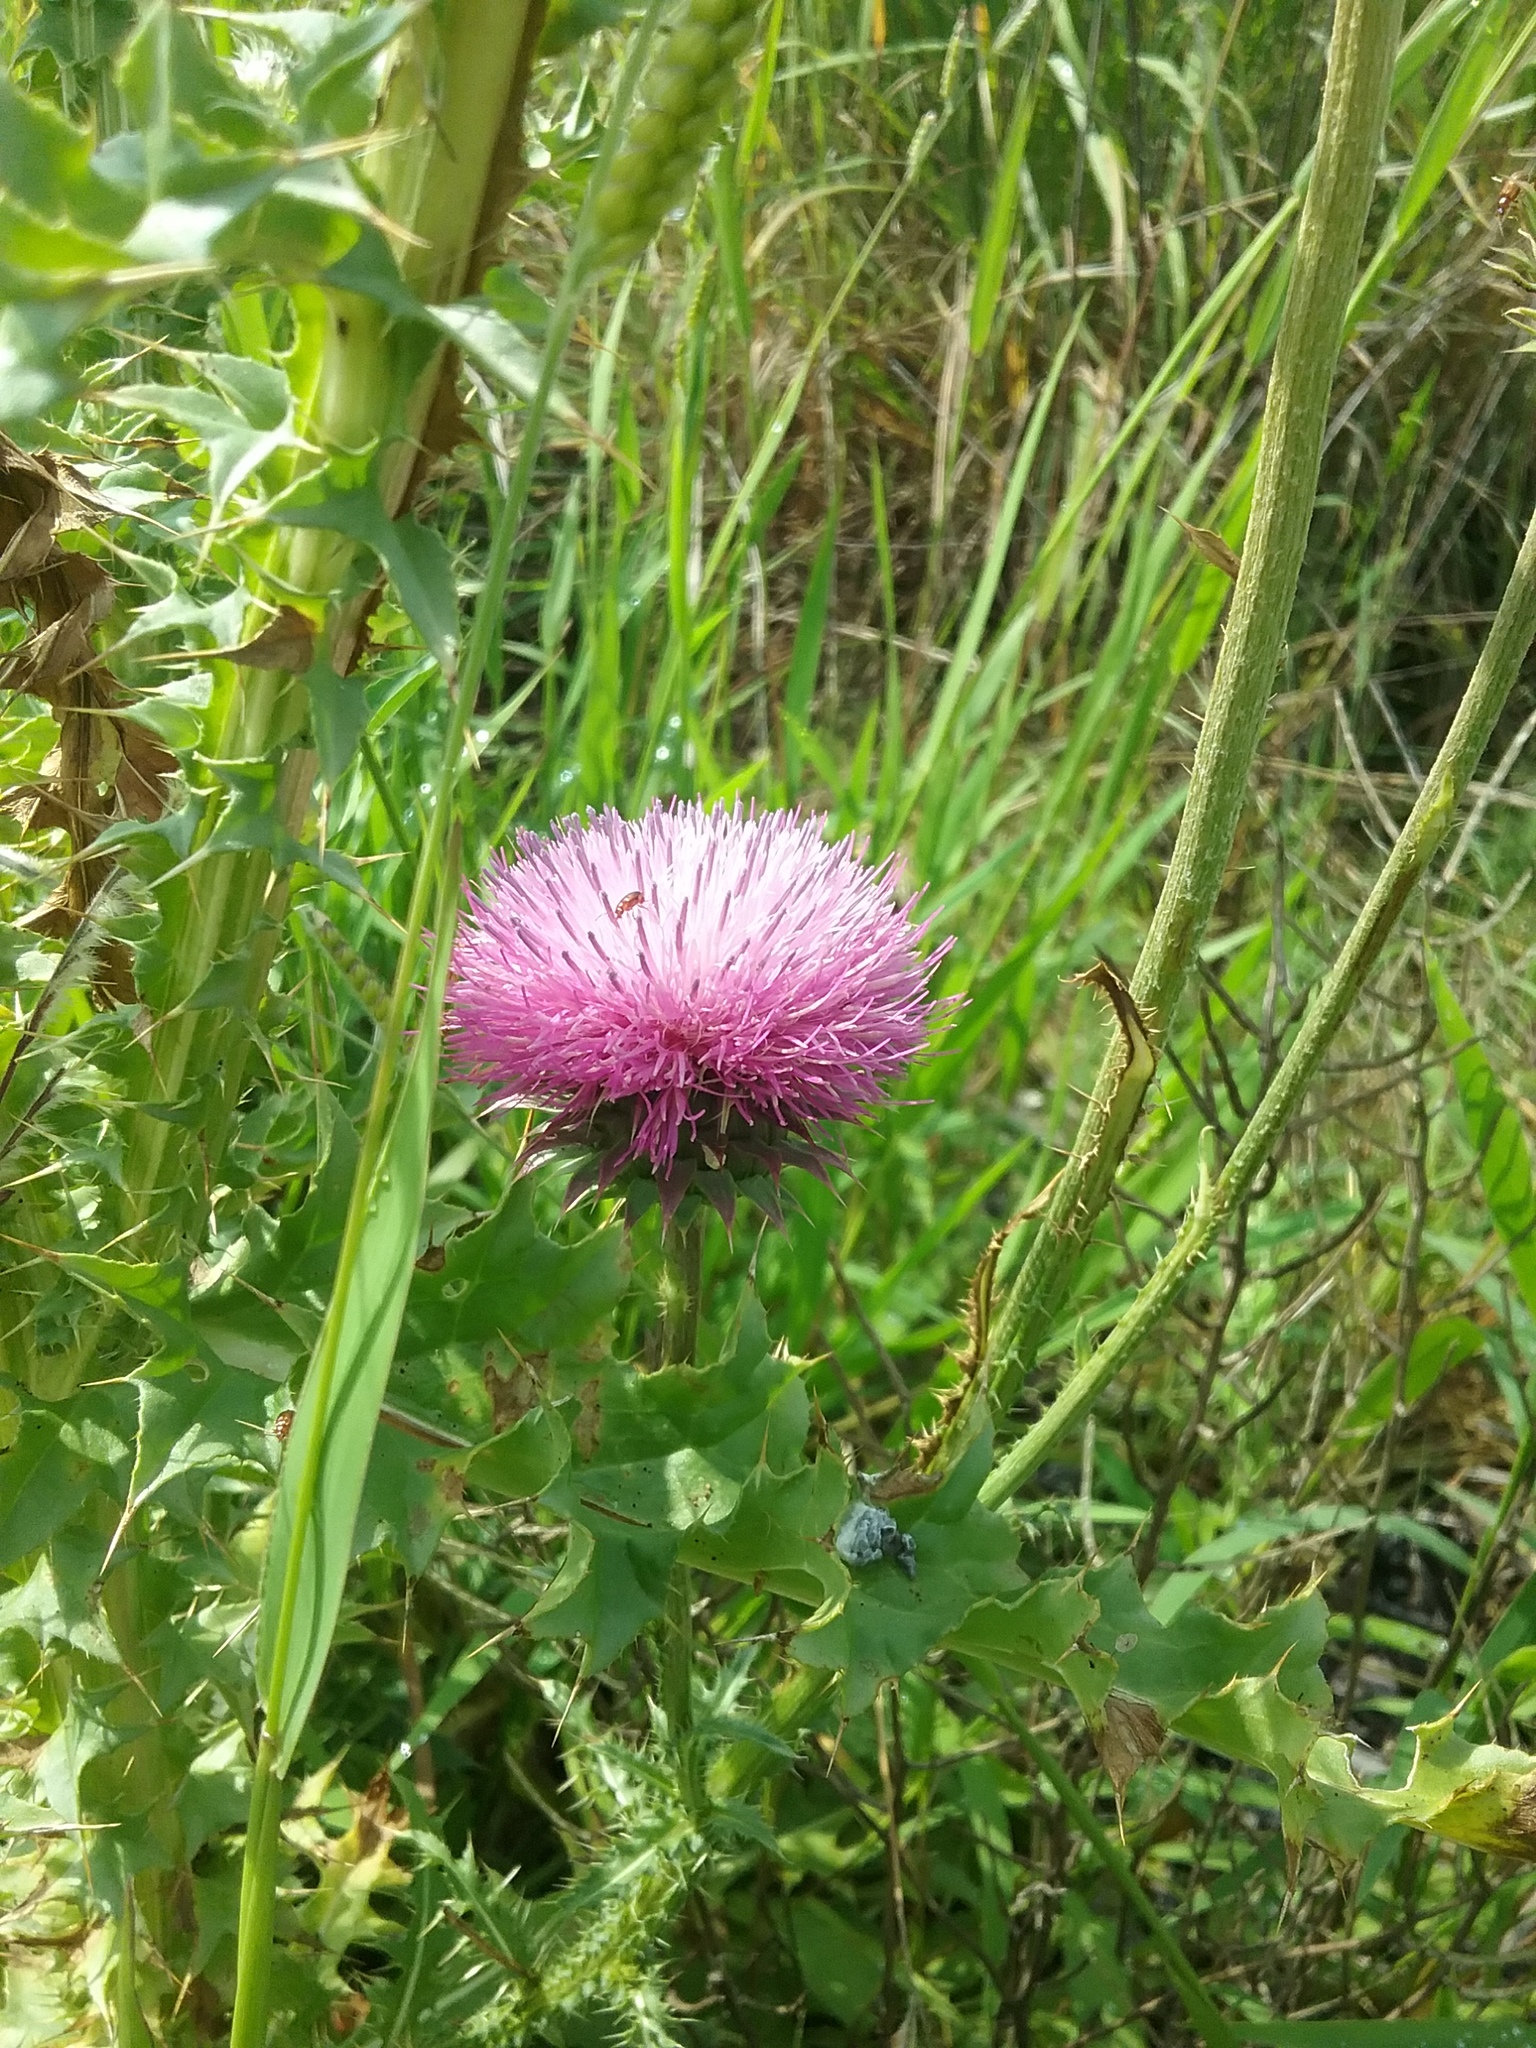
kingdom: Plantae
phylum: Tracheophyta
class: Magnoliopsida
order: Asterales
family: Asteraceae
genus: Carduus
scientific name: Carduus nutans
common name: Musk thistle
